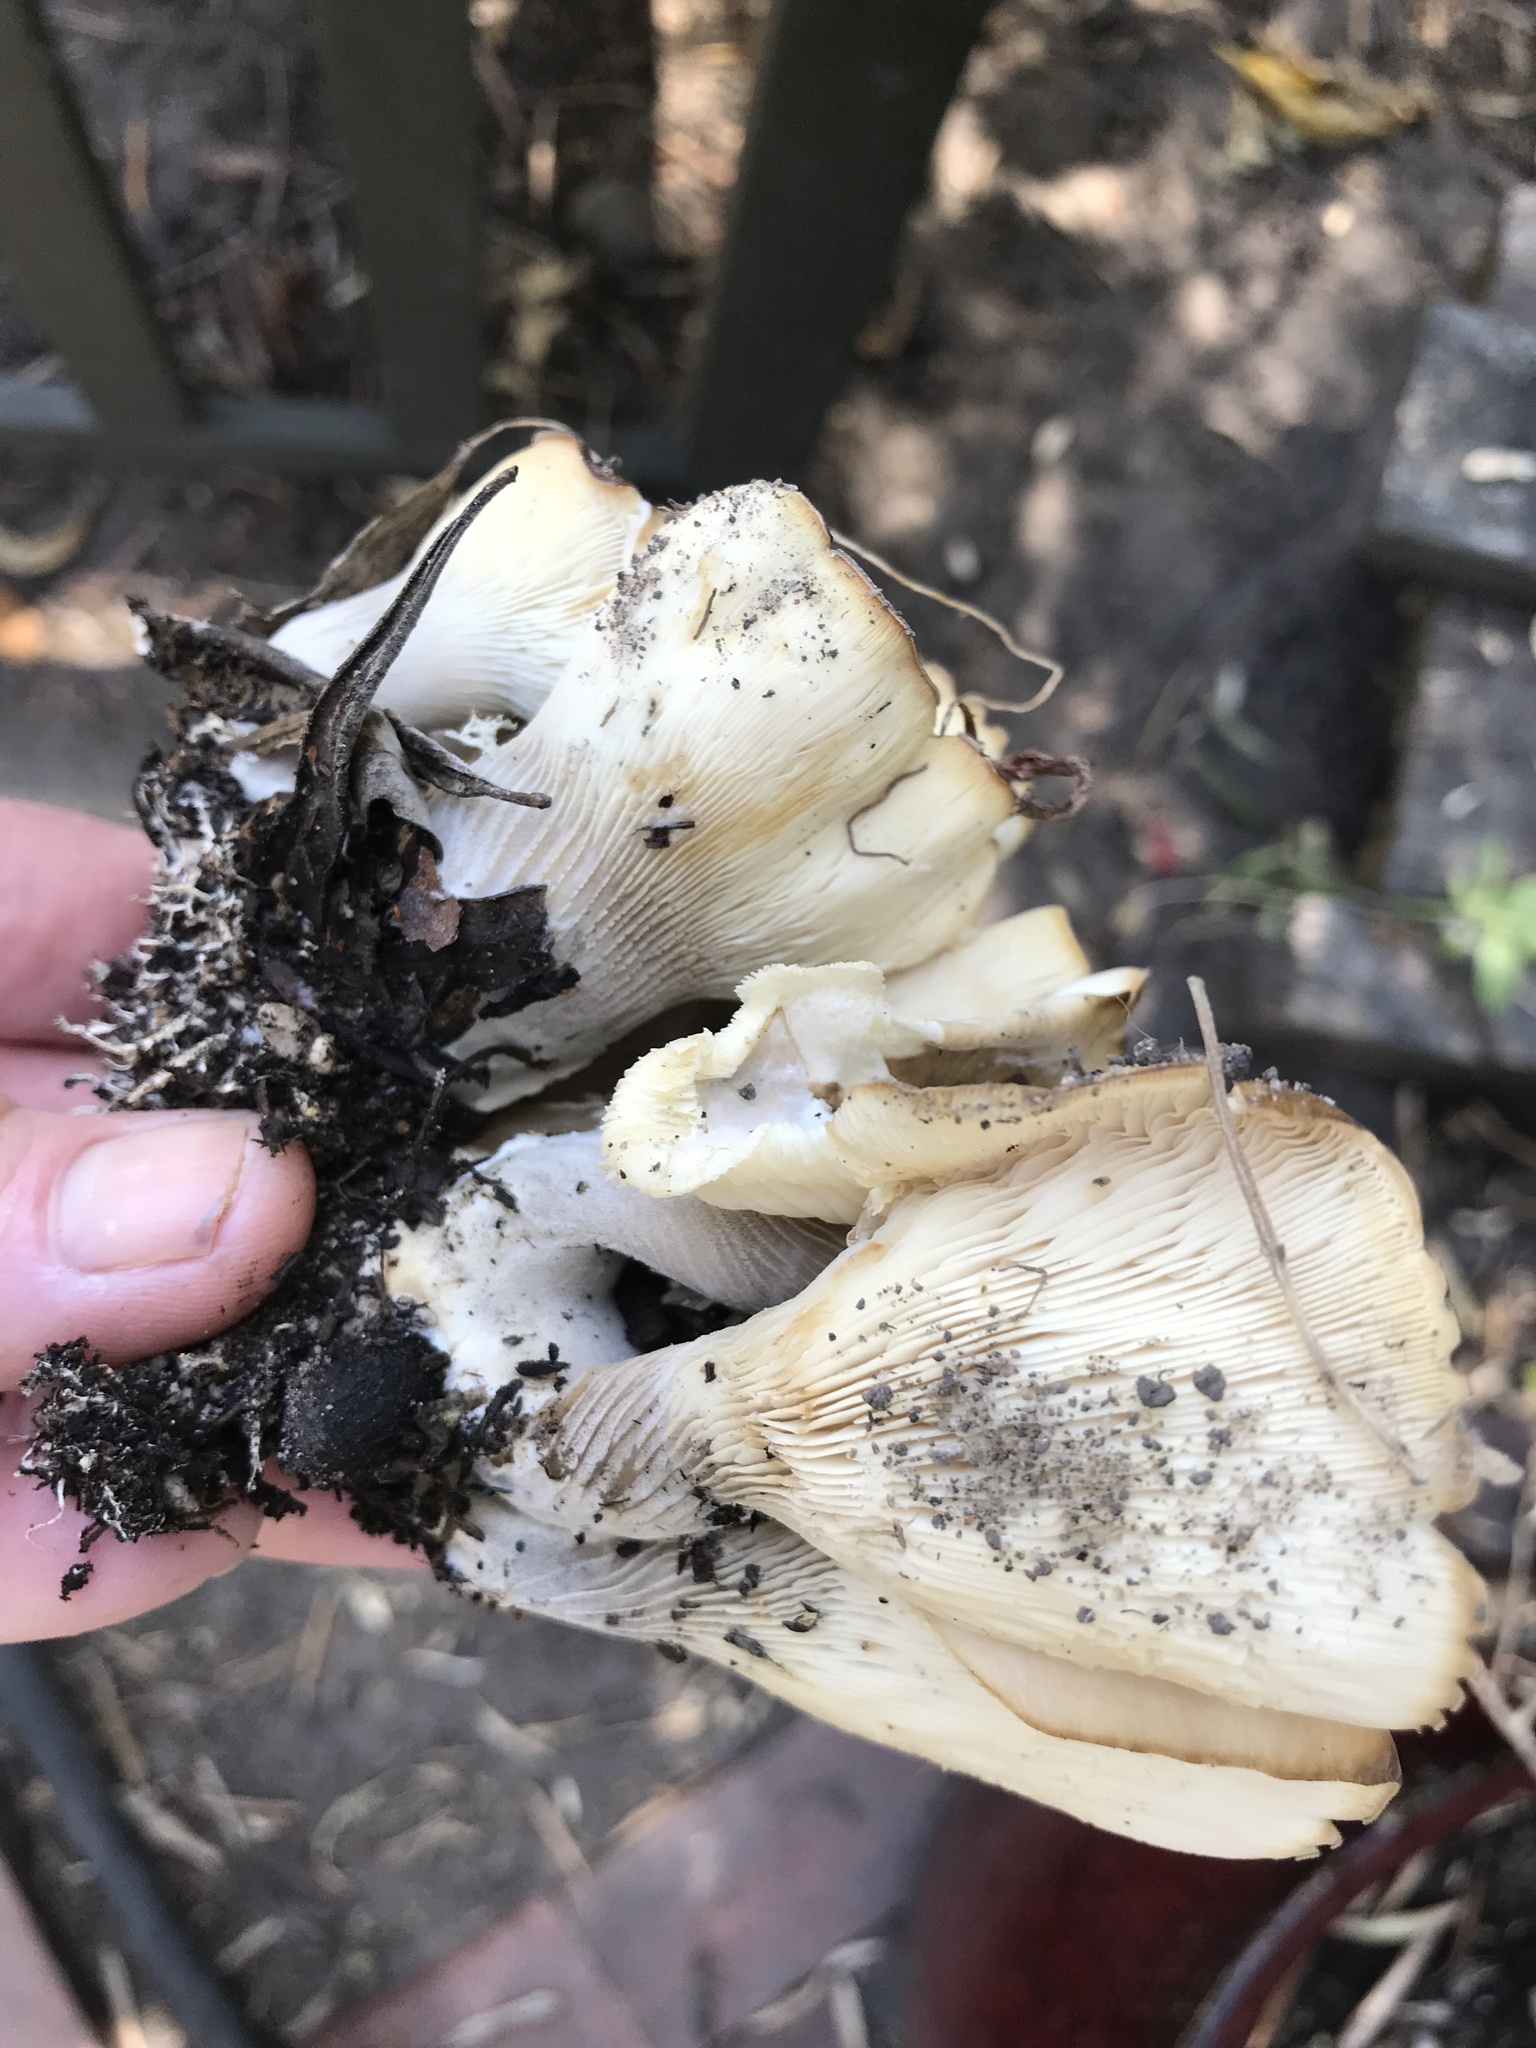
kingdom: Fungi
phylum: Basidiomycota
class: Agaricomycetes
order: Agaricales
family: Pleurotaceae
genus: Hohenbuehelia
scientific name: Hohenbuehelia petaloides
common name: Shoehorn oyster
